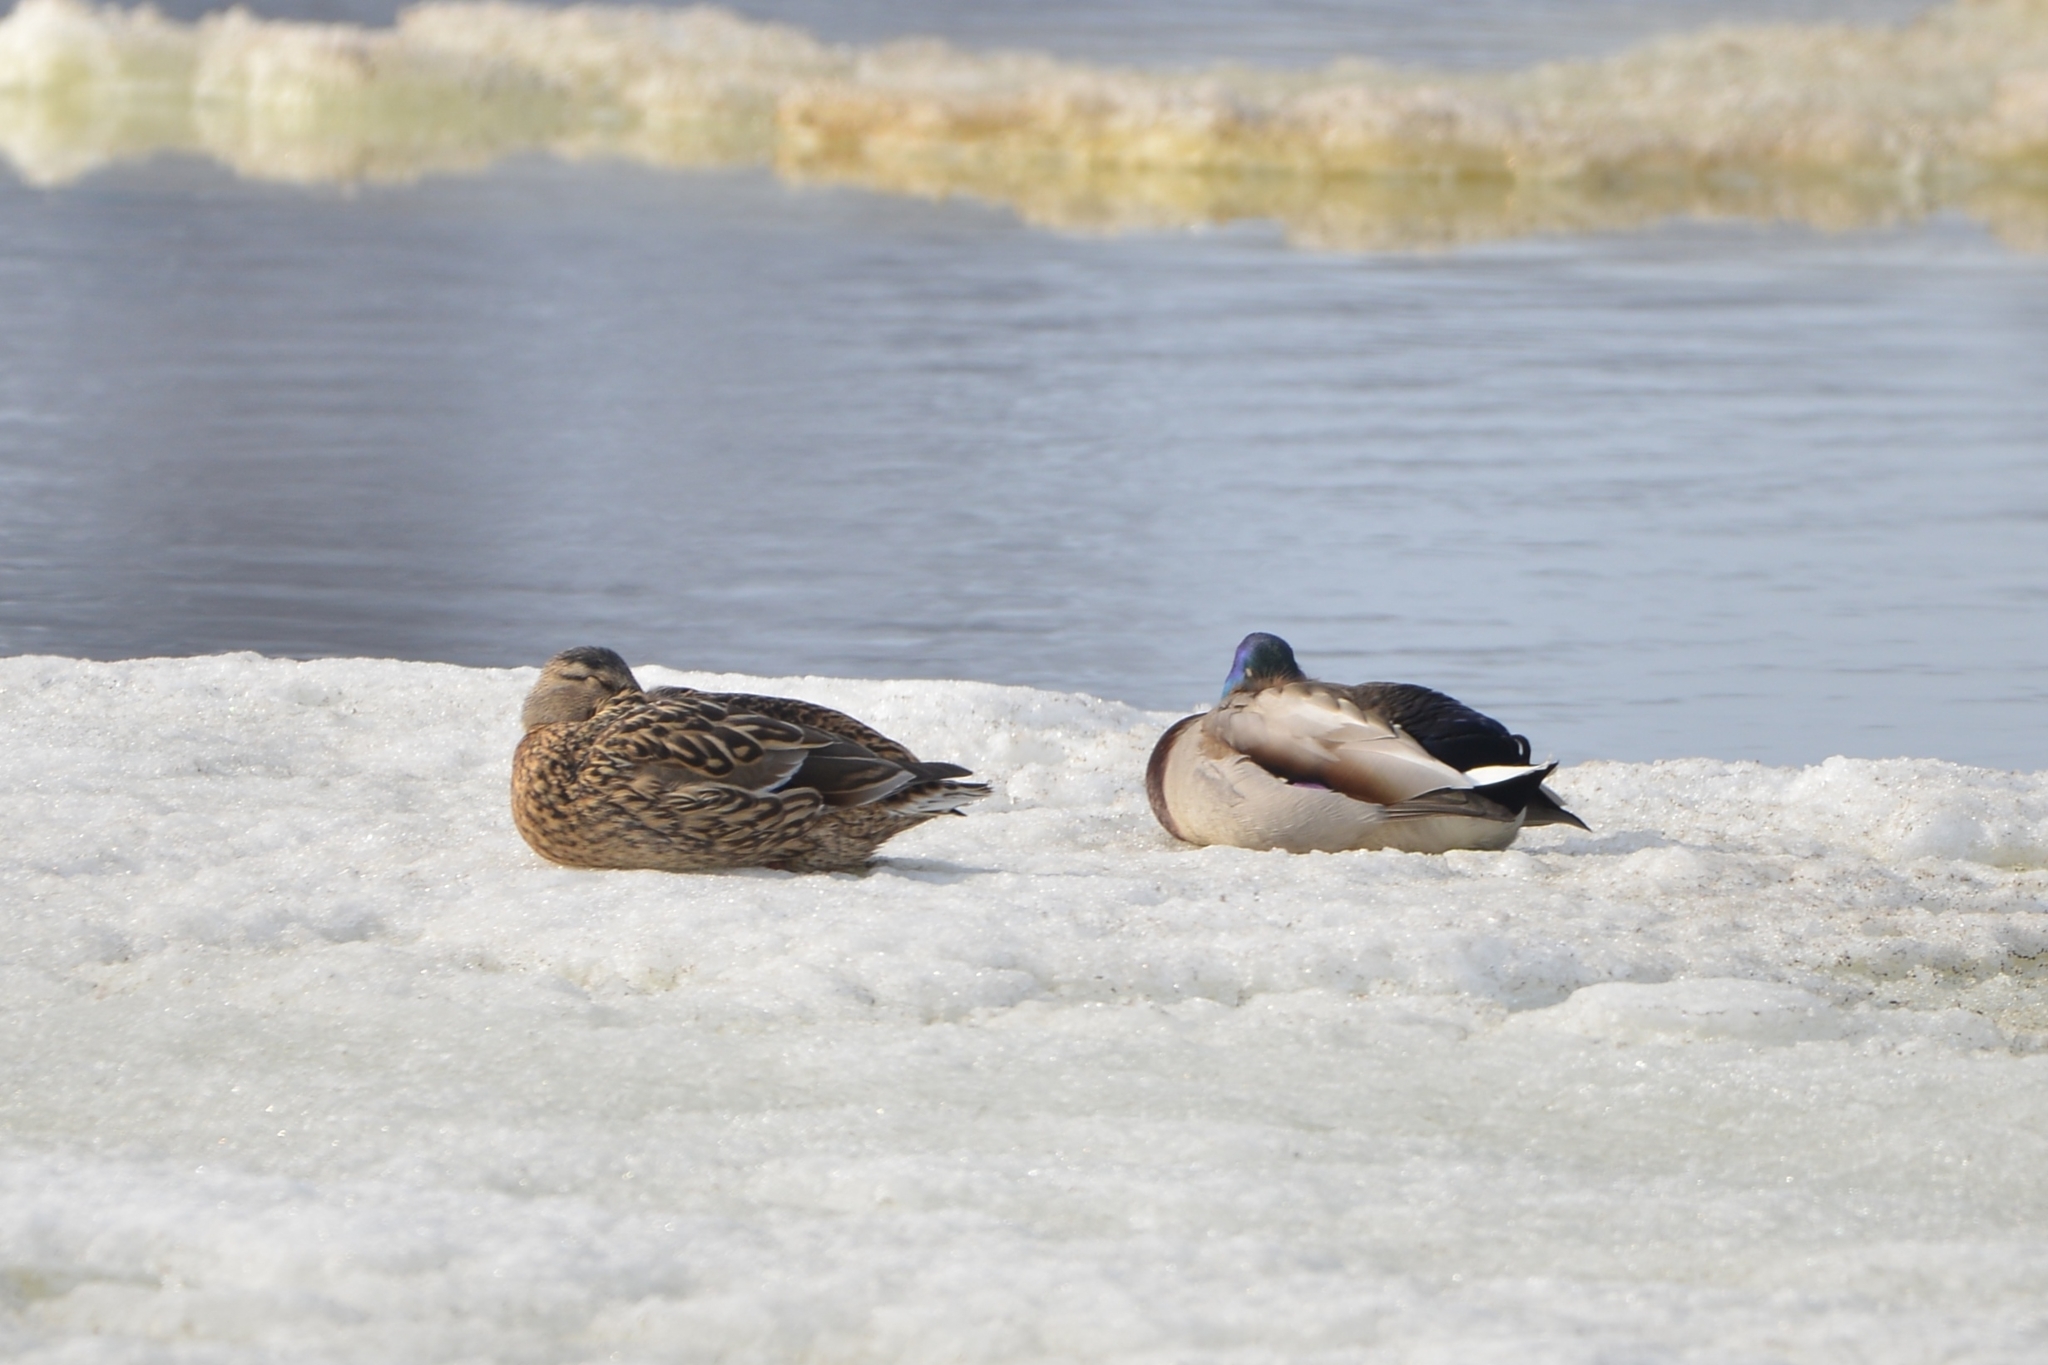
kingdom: Animalia
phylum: Chordata
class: Aves
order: Anseriformes
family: Anatidae
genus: Anas
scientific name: Anas platyrhynchos
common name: Mallard
